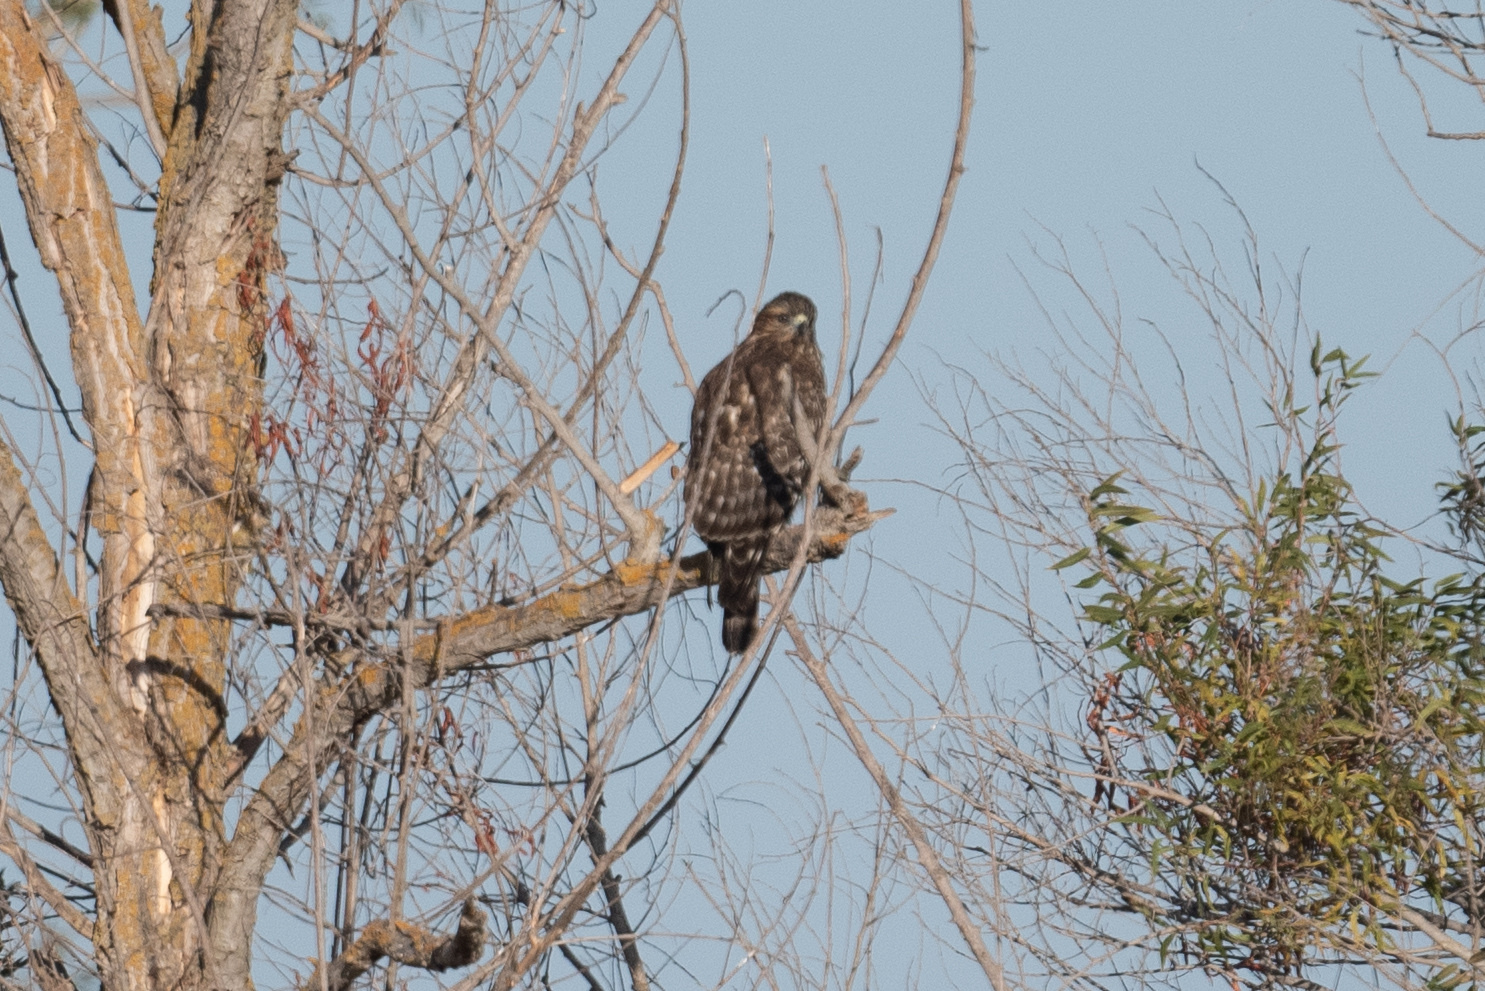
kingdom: Animalia
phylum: Chordata
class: Aves
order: Accipitriformes
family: Accipitridae
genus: Buteo
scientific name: Buteo lineatus
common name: Red-shouldered hawk
